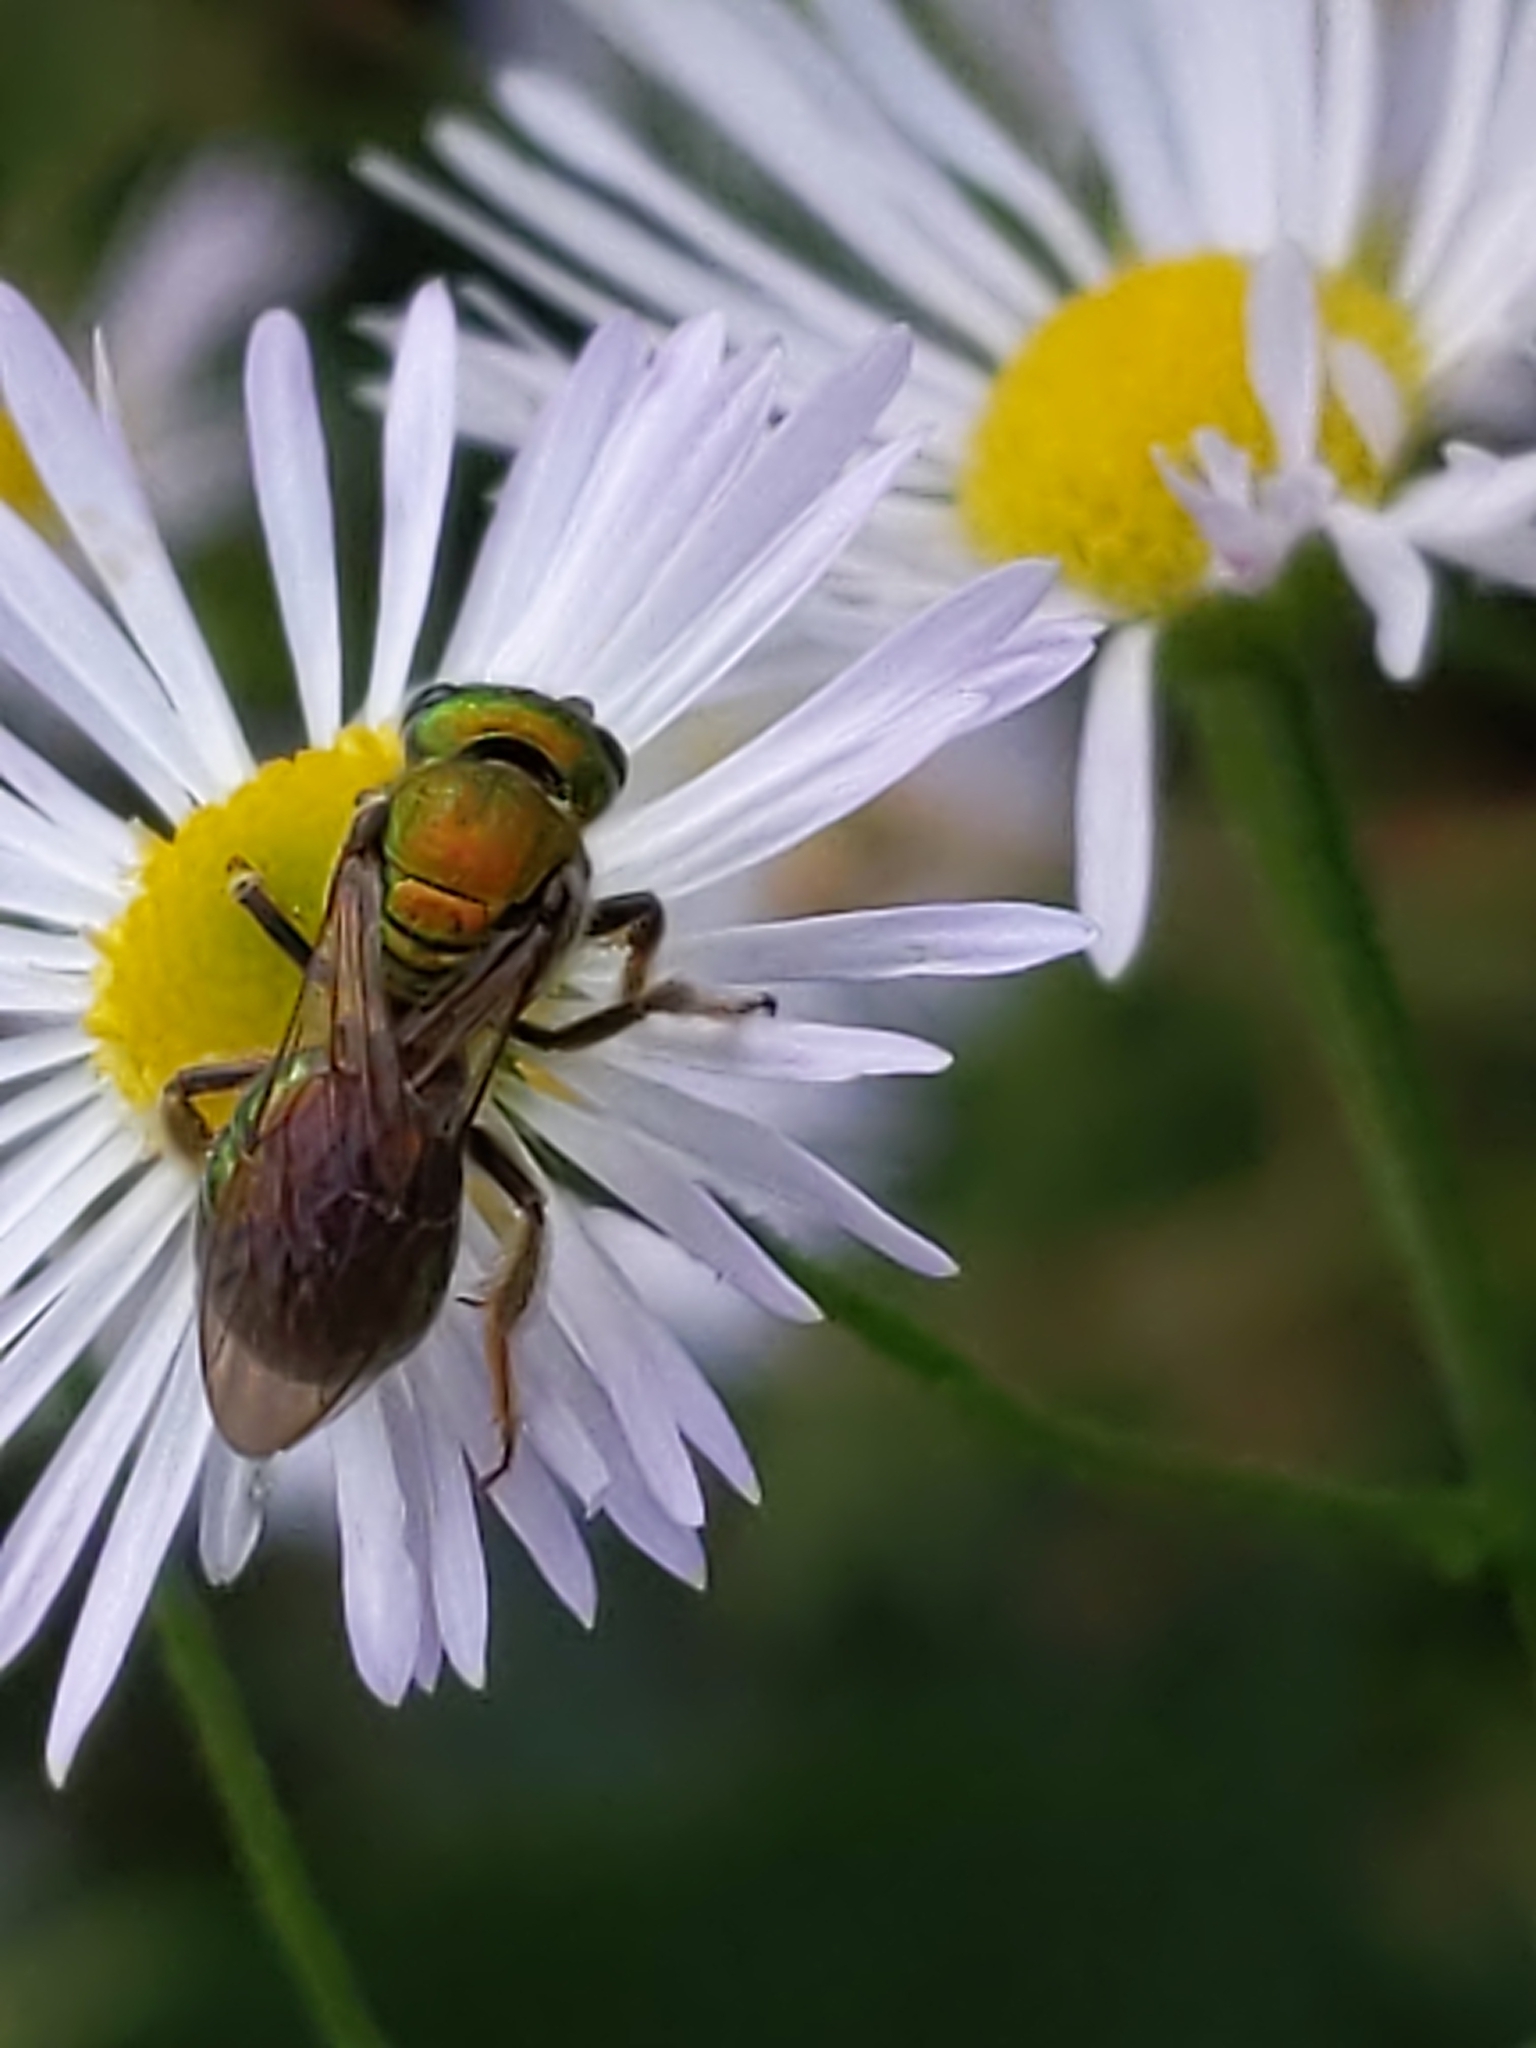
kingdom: Animalia
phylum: Arthropoda
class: Insecta
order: Hymenoptera
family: Halictidae
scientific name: Halictidae
